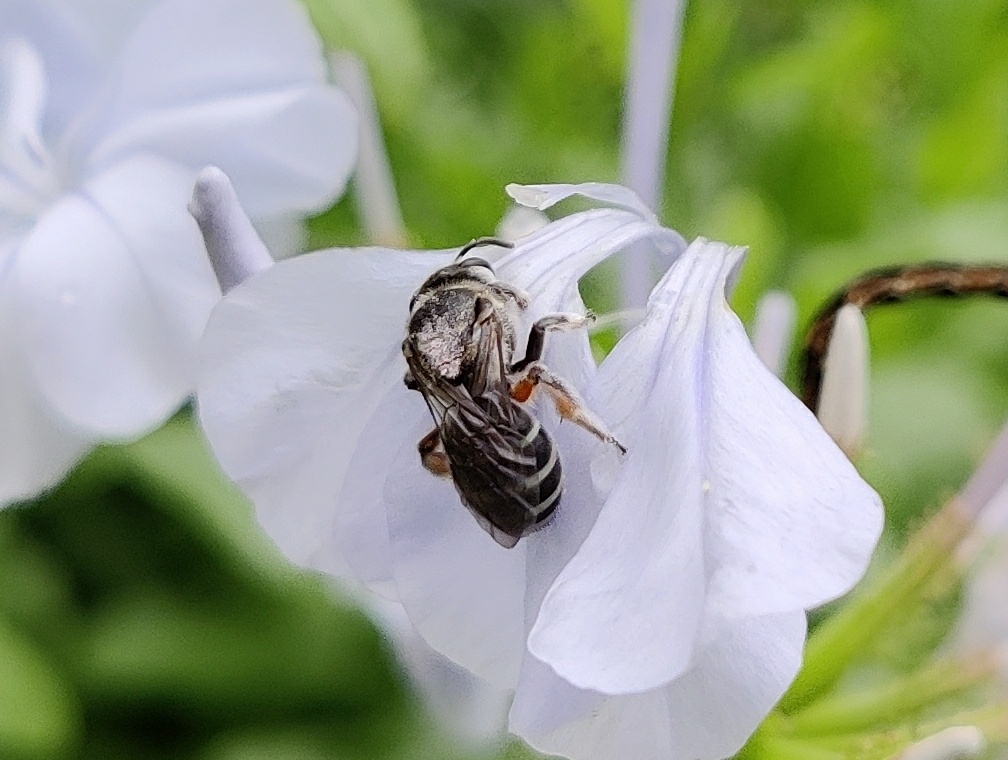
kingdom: Animalia
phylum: Arthropoda
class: Insecta
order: Hymenoptera
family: Halictidae
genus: Nomia
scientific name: Nomia westwoodi
